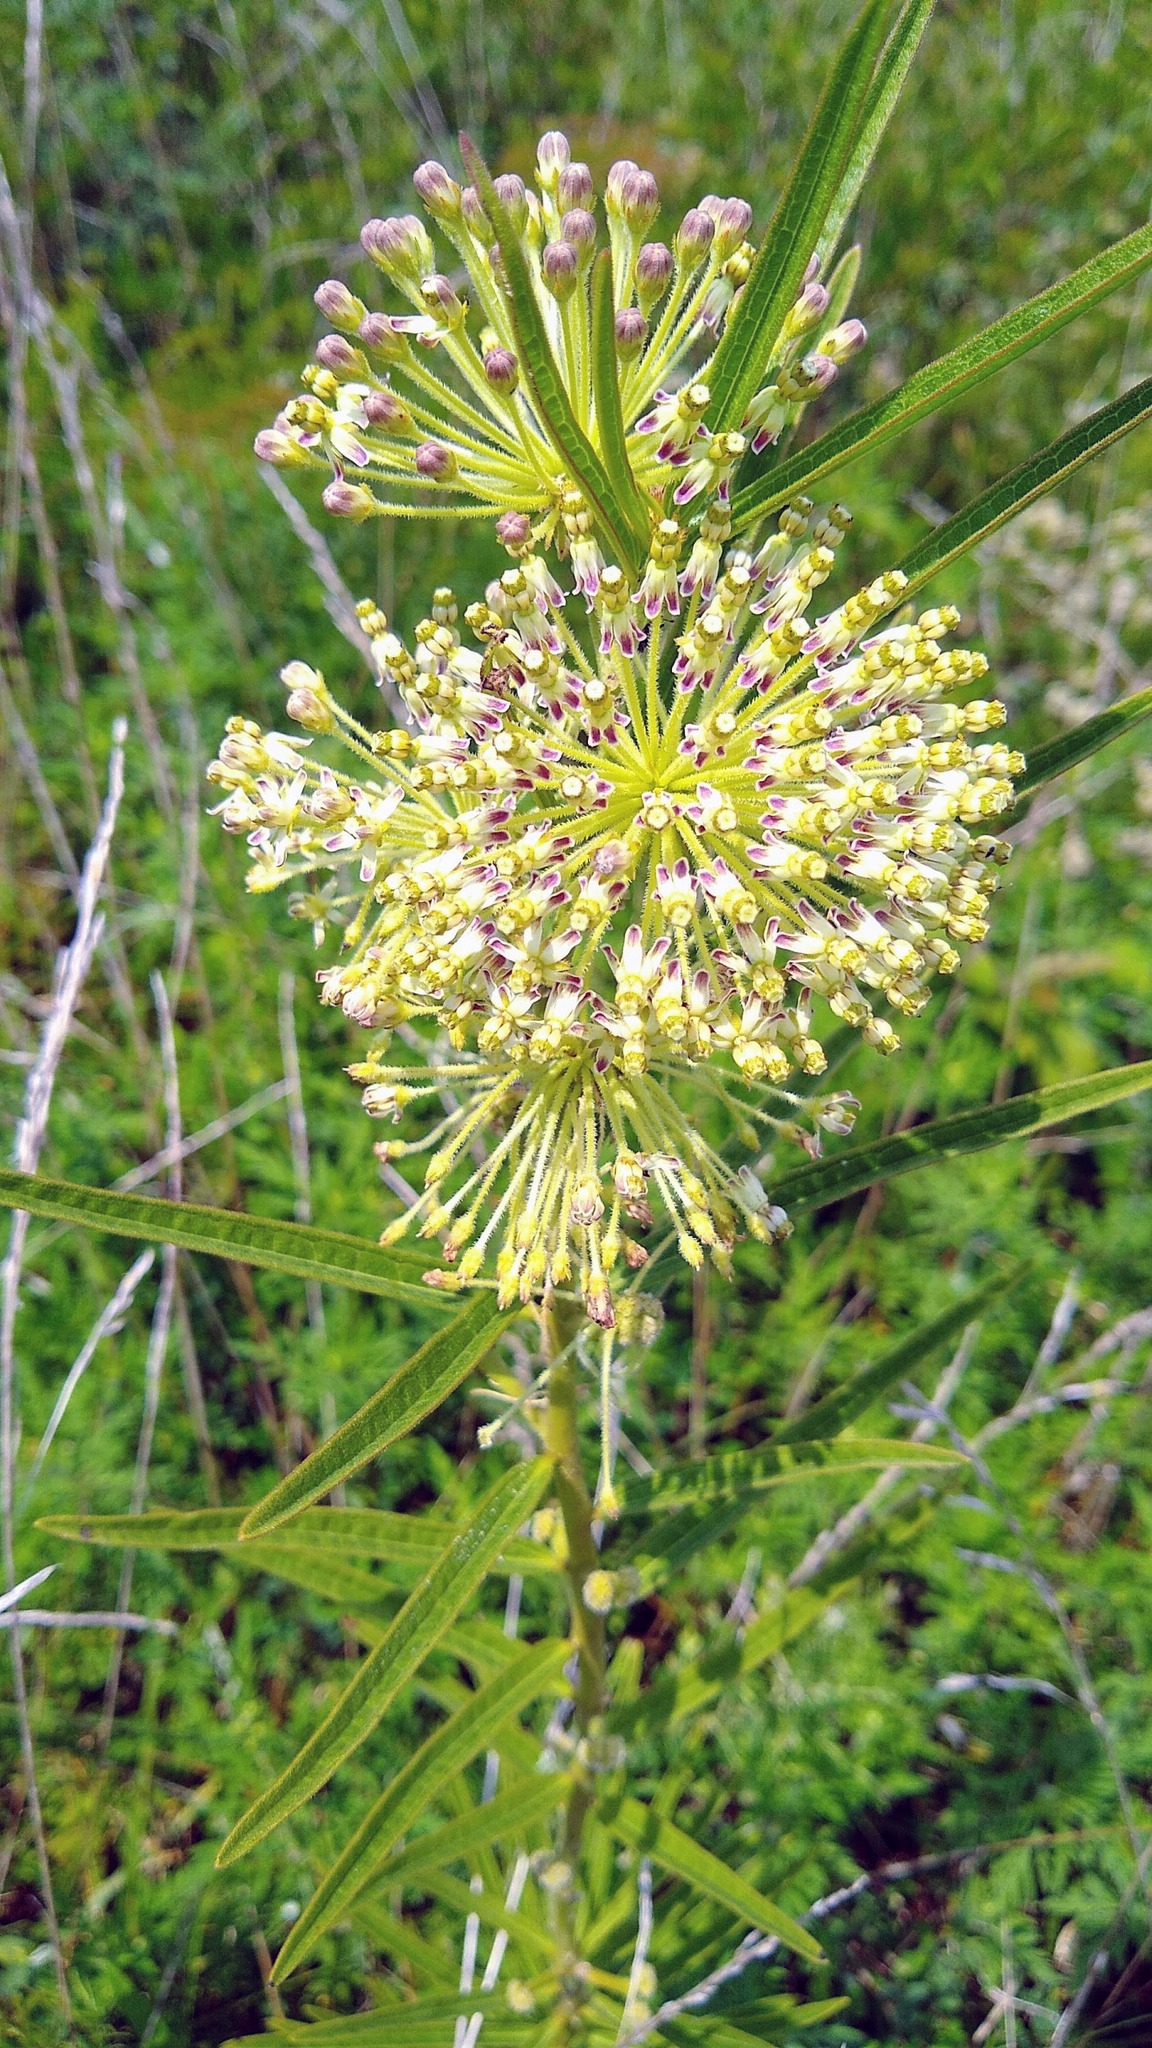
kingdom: Plantae
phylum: Tracheophyta
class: Magnoliopsida
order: Gentianales
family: Apocynaceae
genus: Asclepias
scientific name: Asclepias hirtella
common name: Prairie milkweed
